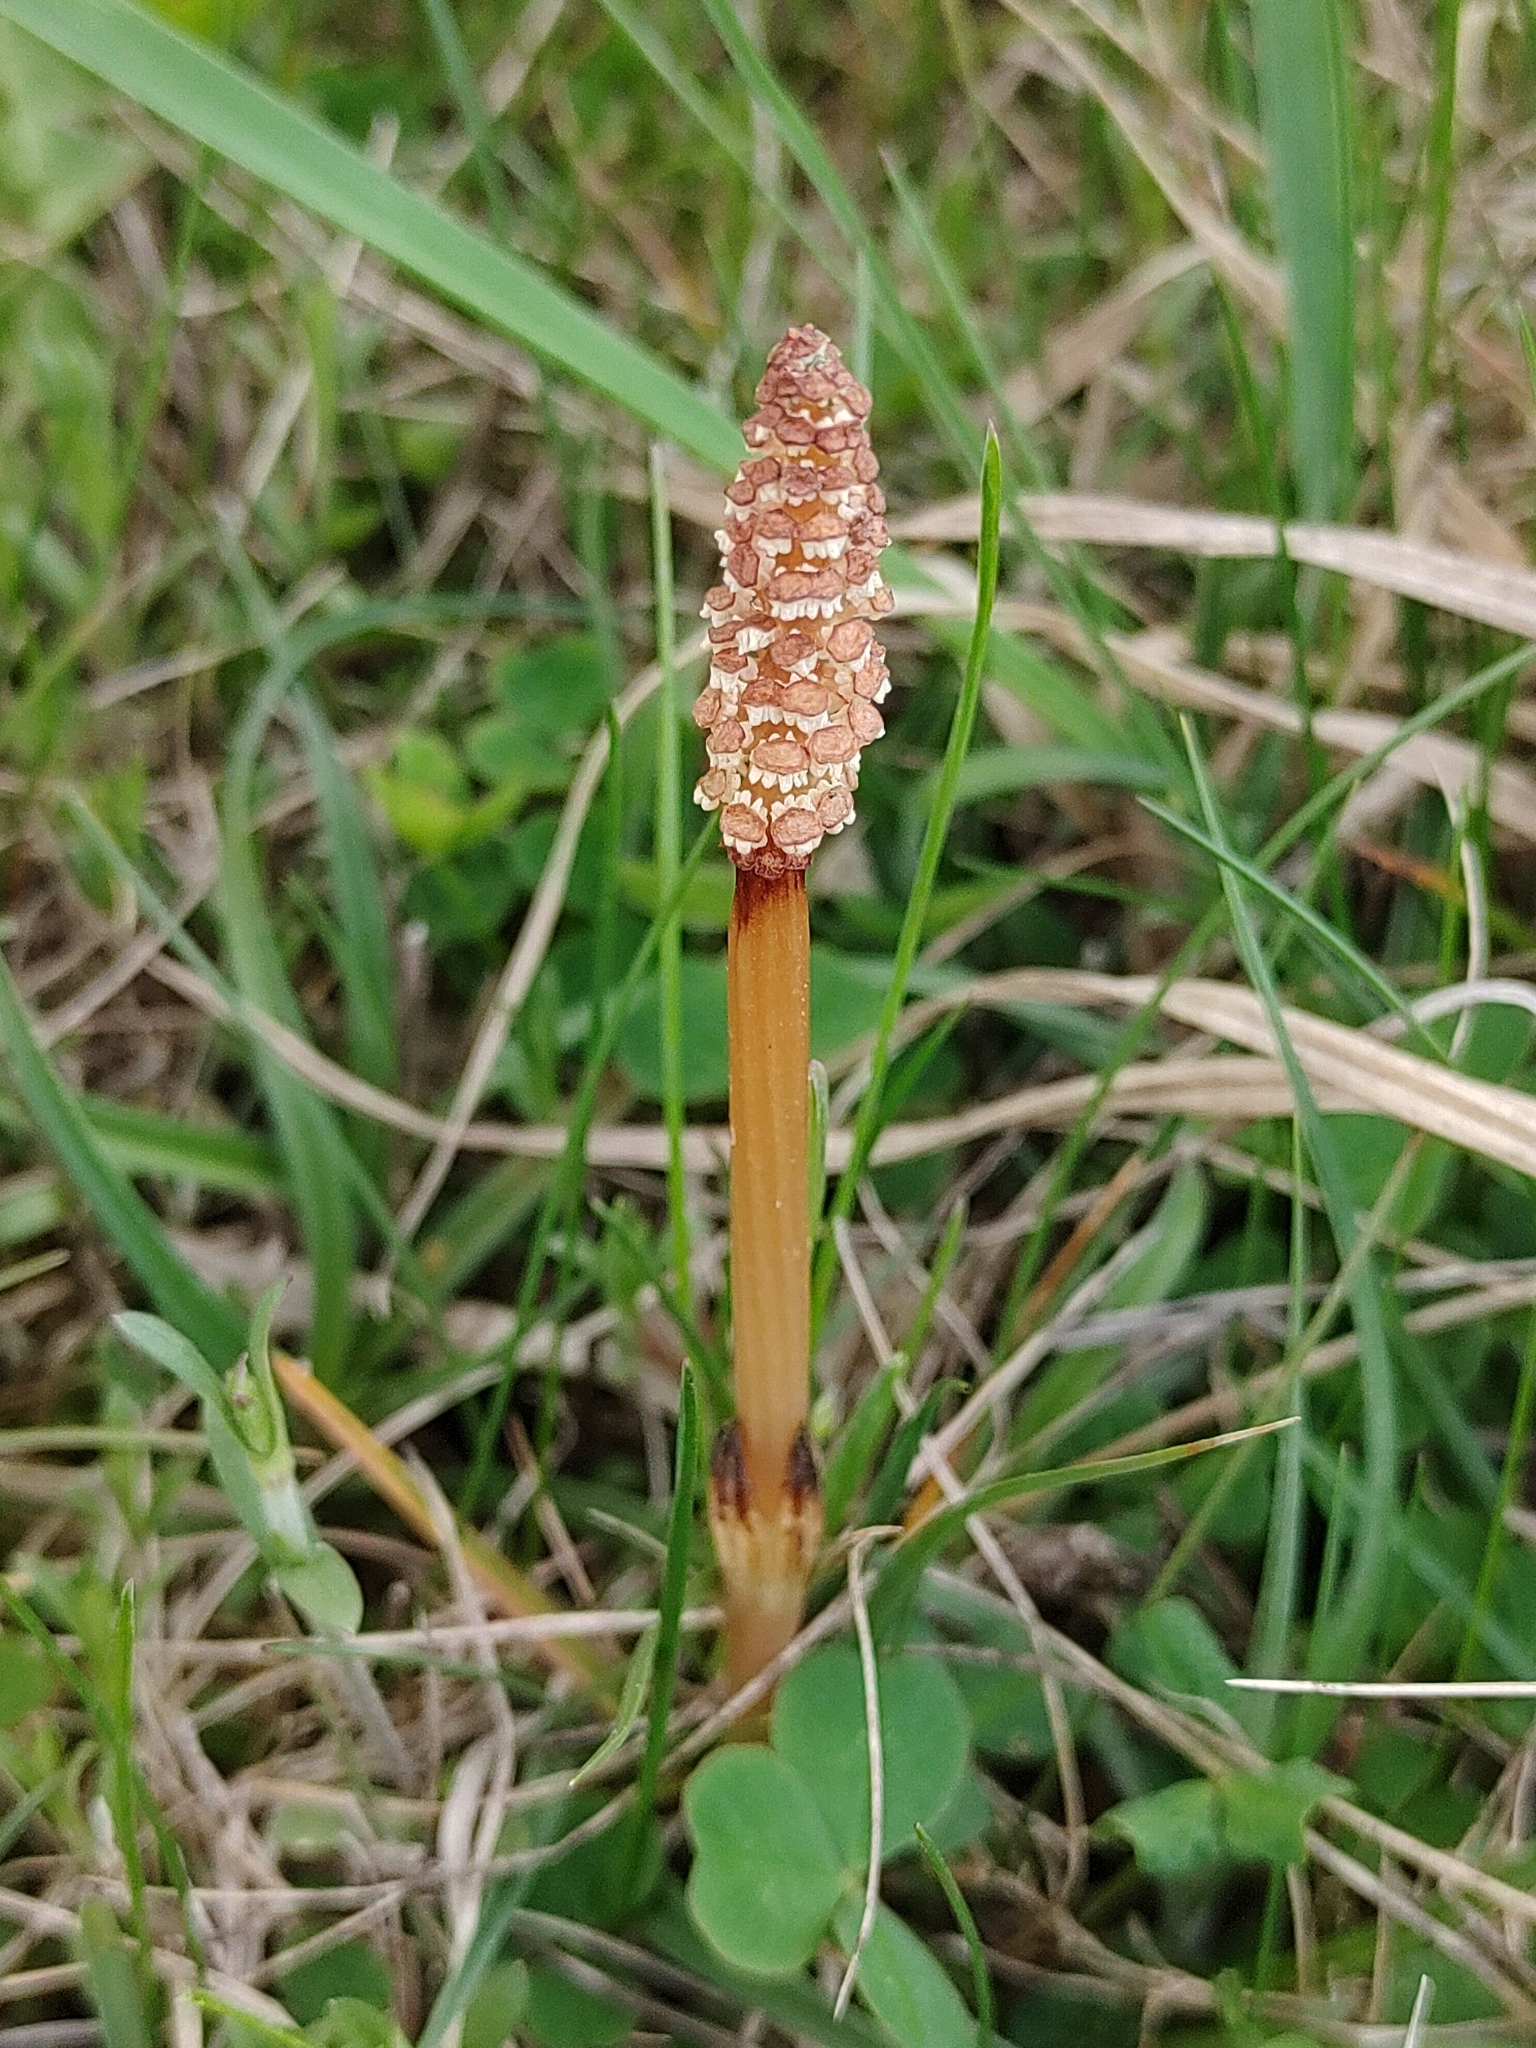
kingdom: Plantae
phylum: Tracheophyta
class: Polypodiopsida
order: Equisetales
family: Equisetaceae
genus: Equisetum
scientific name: Equisetum arvense
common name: Field horsetail
